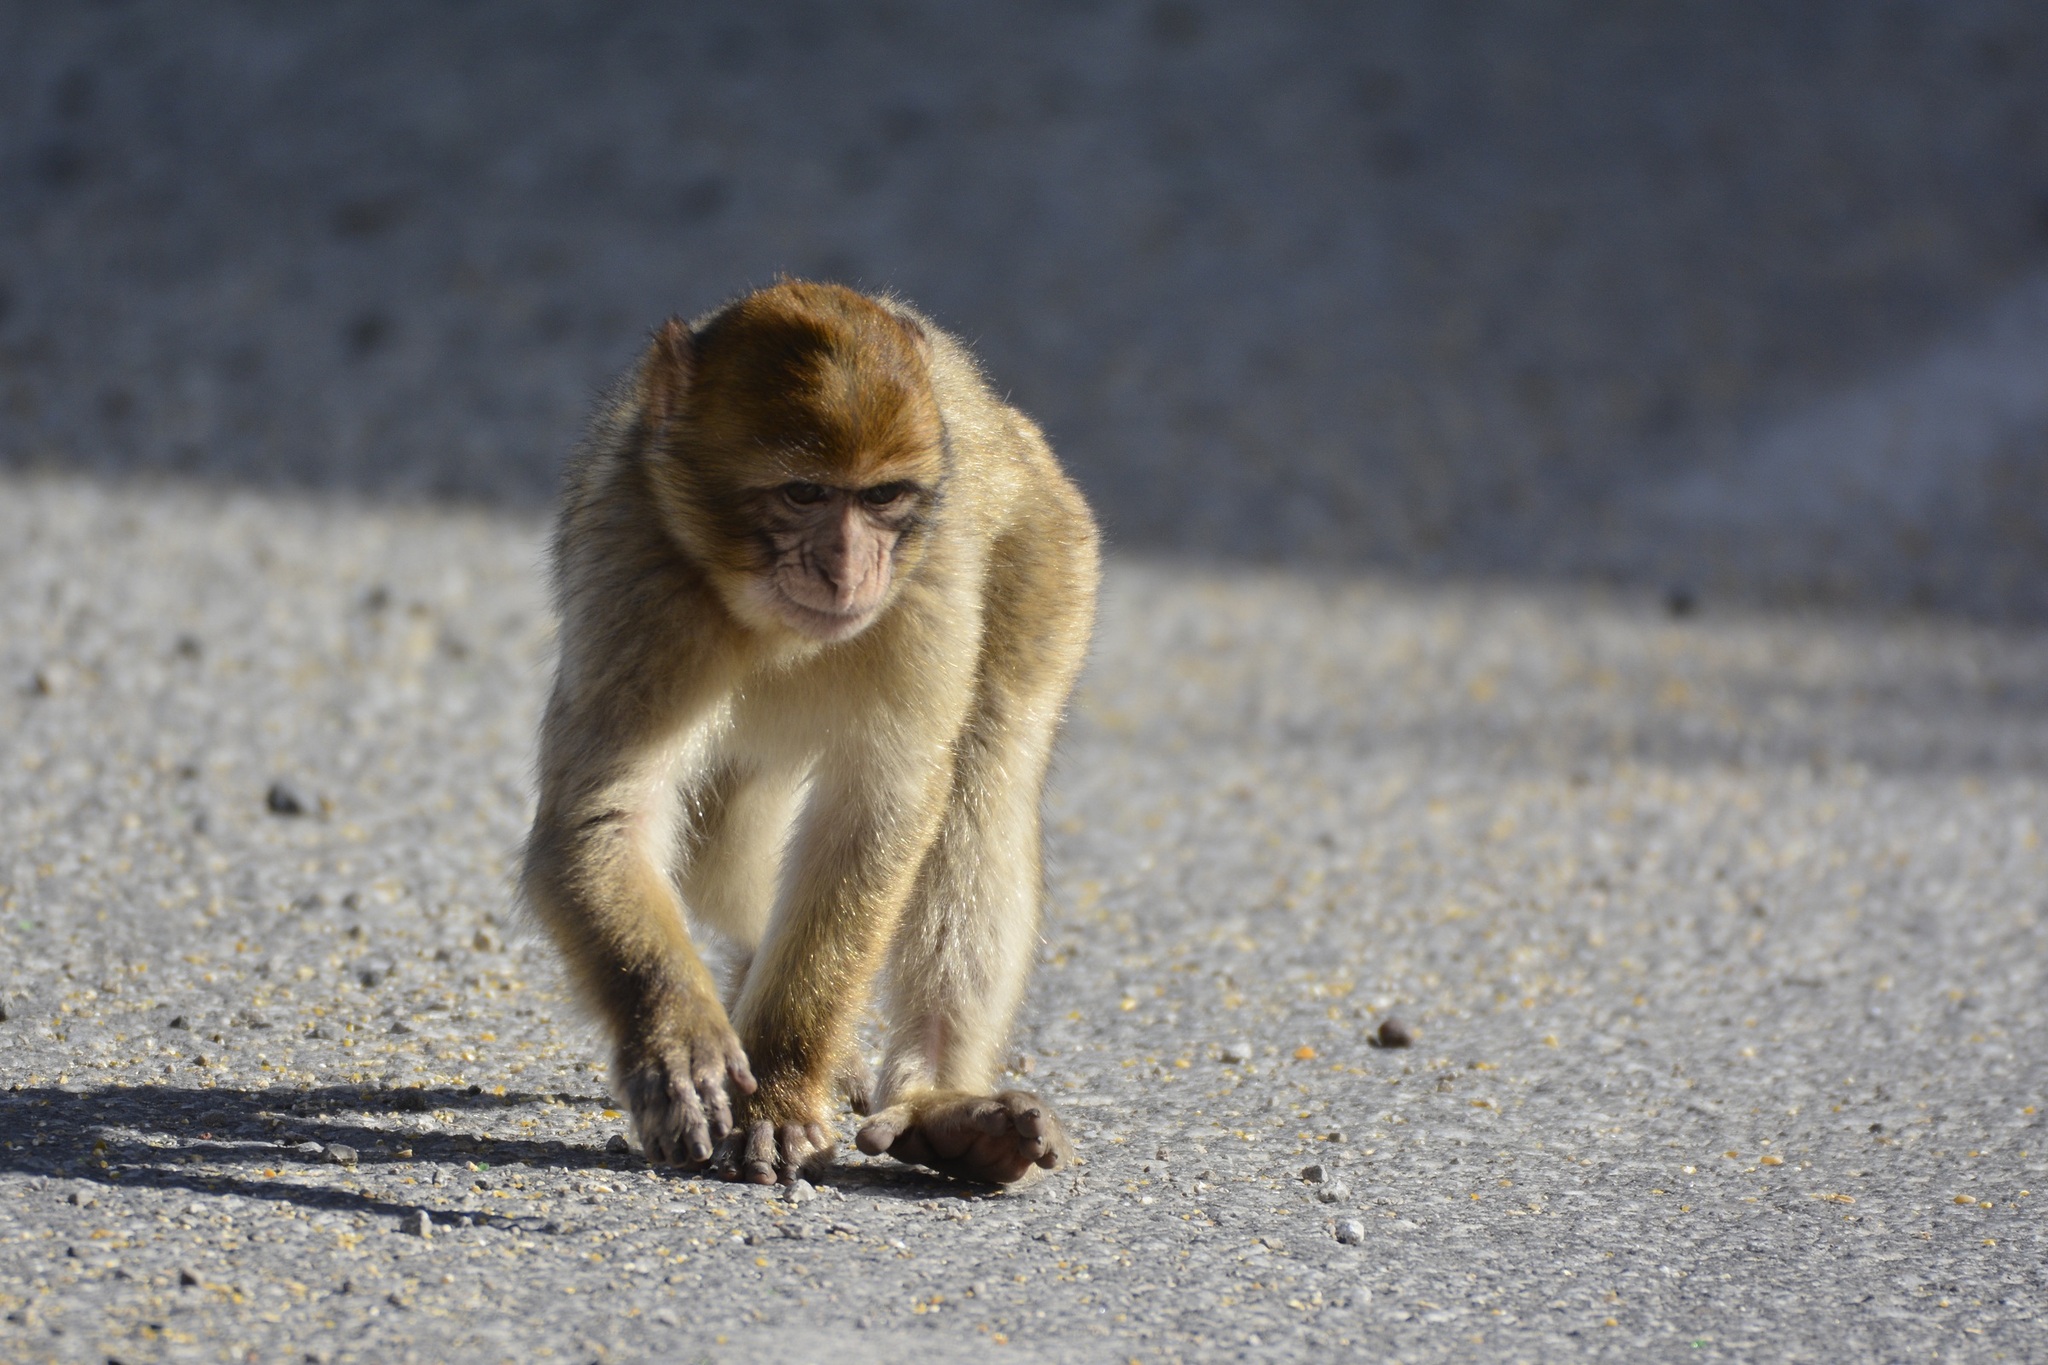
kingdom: Animalia
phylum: Chordata
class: Mammalia
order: Primates
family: Cercopithecidae
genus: Macaca
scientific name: Macaca sylvanus
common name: Barbary macaque
